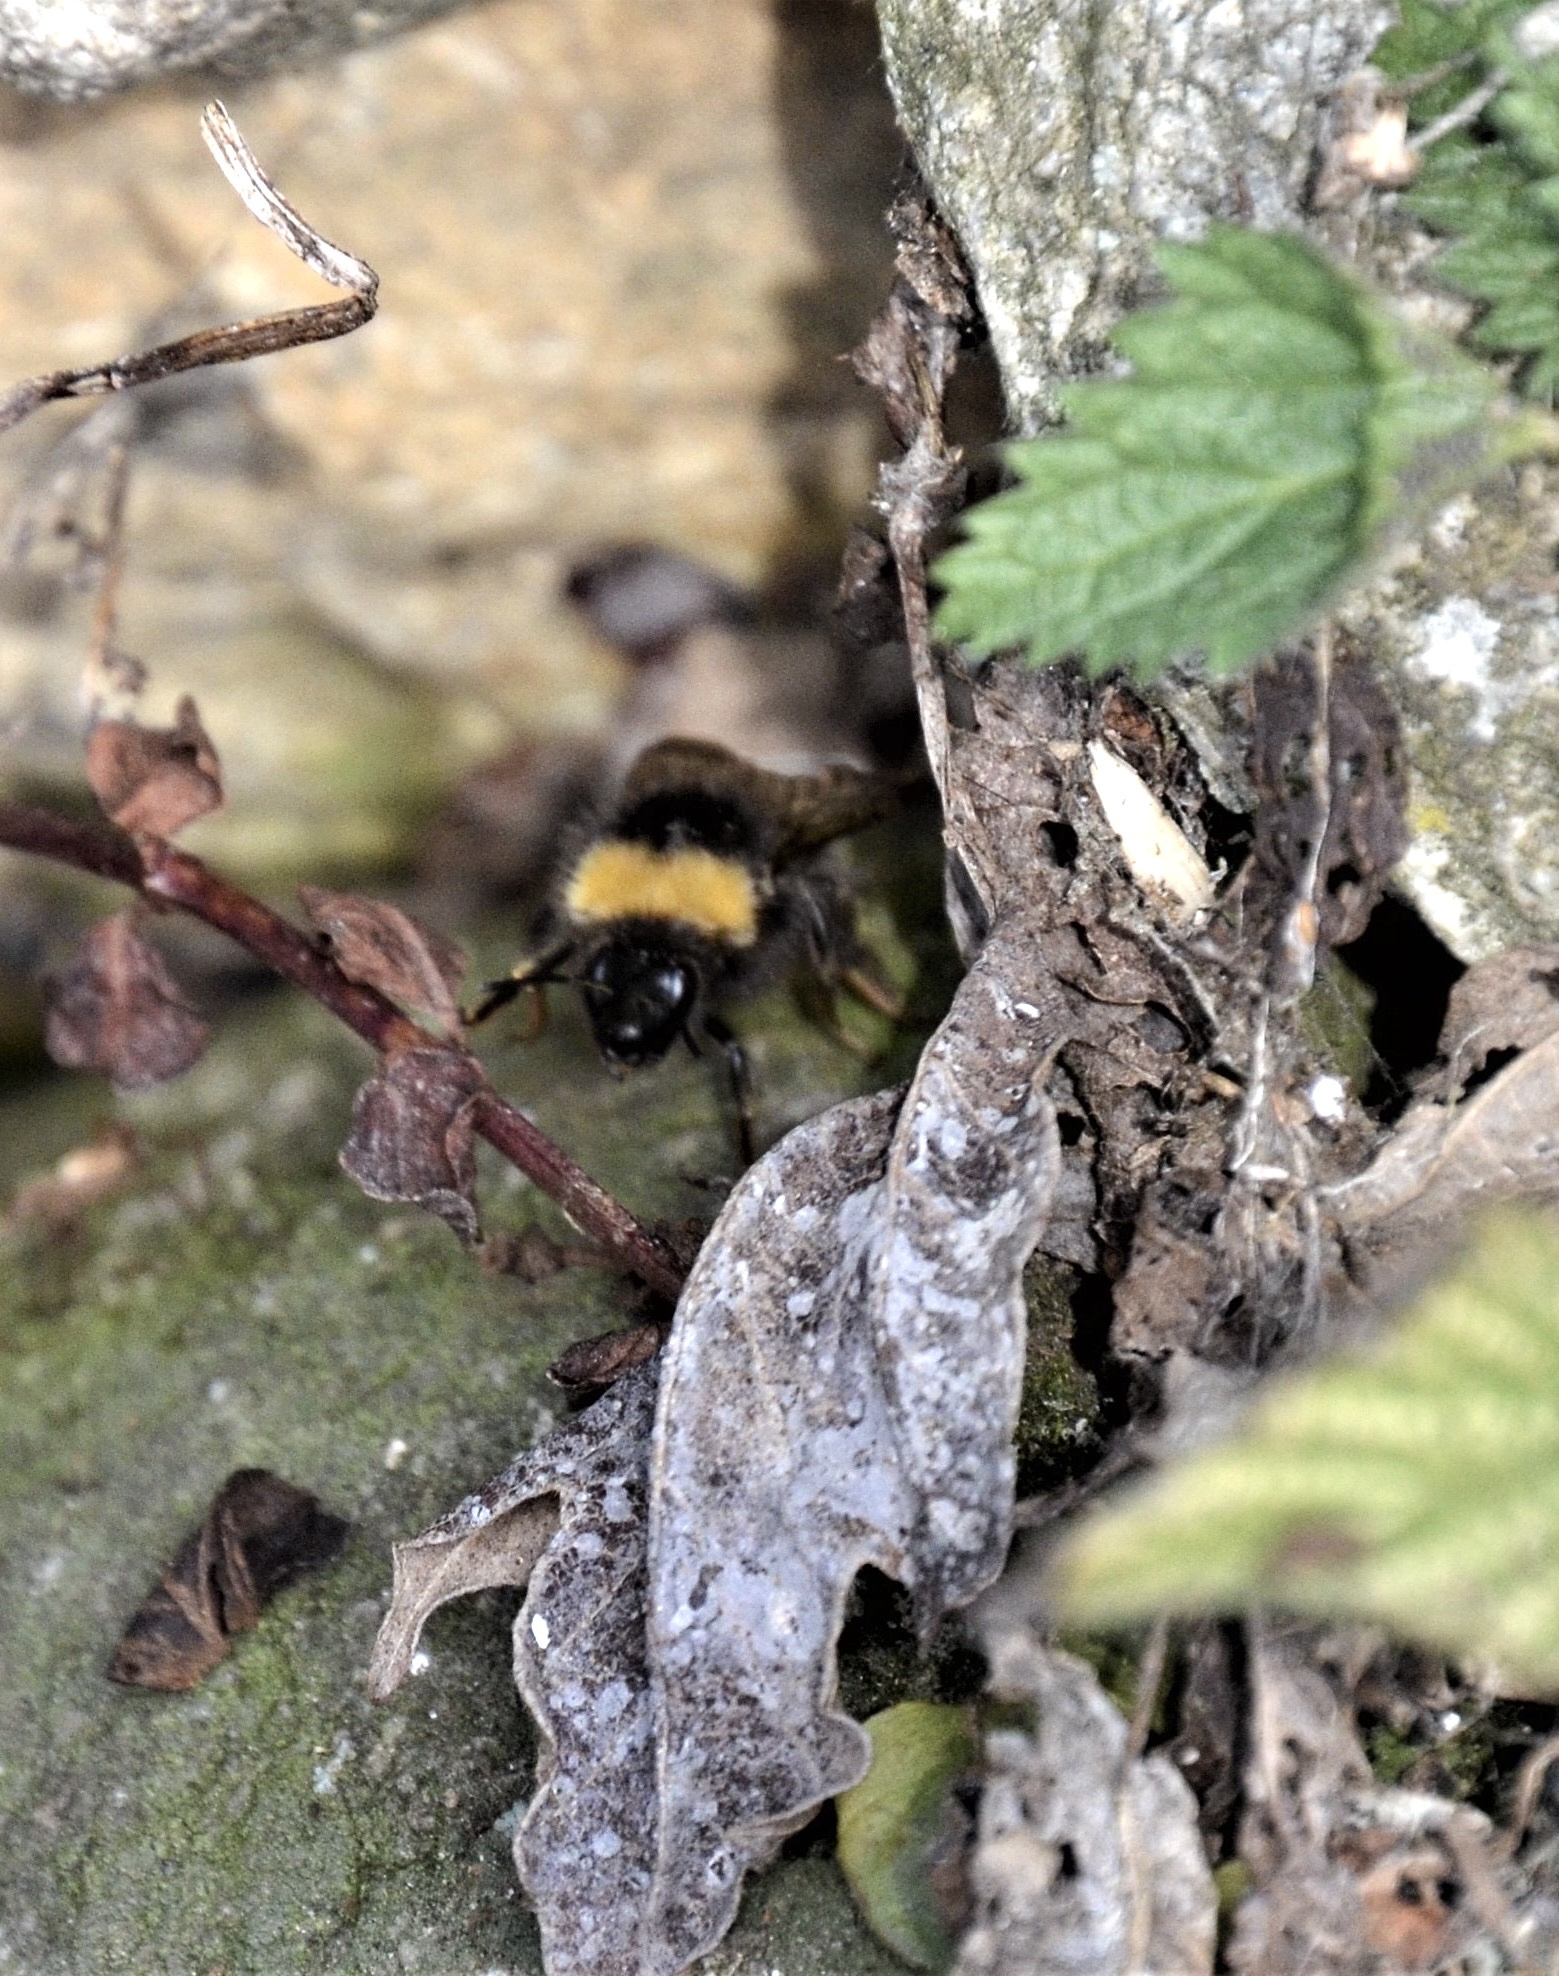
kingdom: Animalia
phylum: Arthropoda
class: Insecta
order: Hymenoptera
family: Apidae
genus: Bombus
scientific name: Bombus pratorum
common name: Early humble-bee
